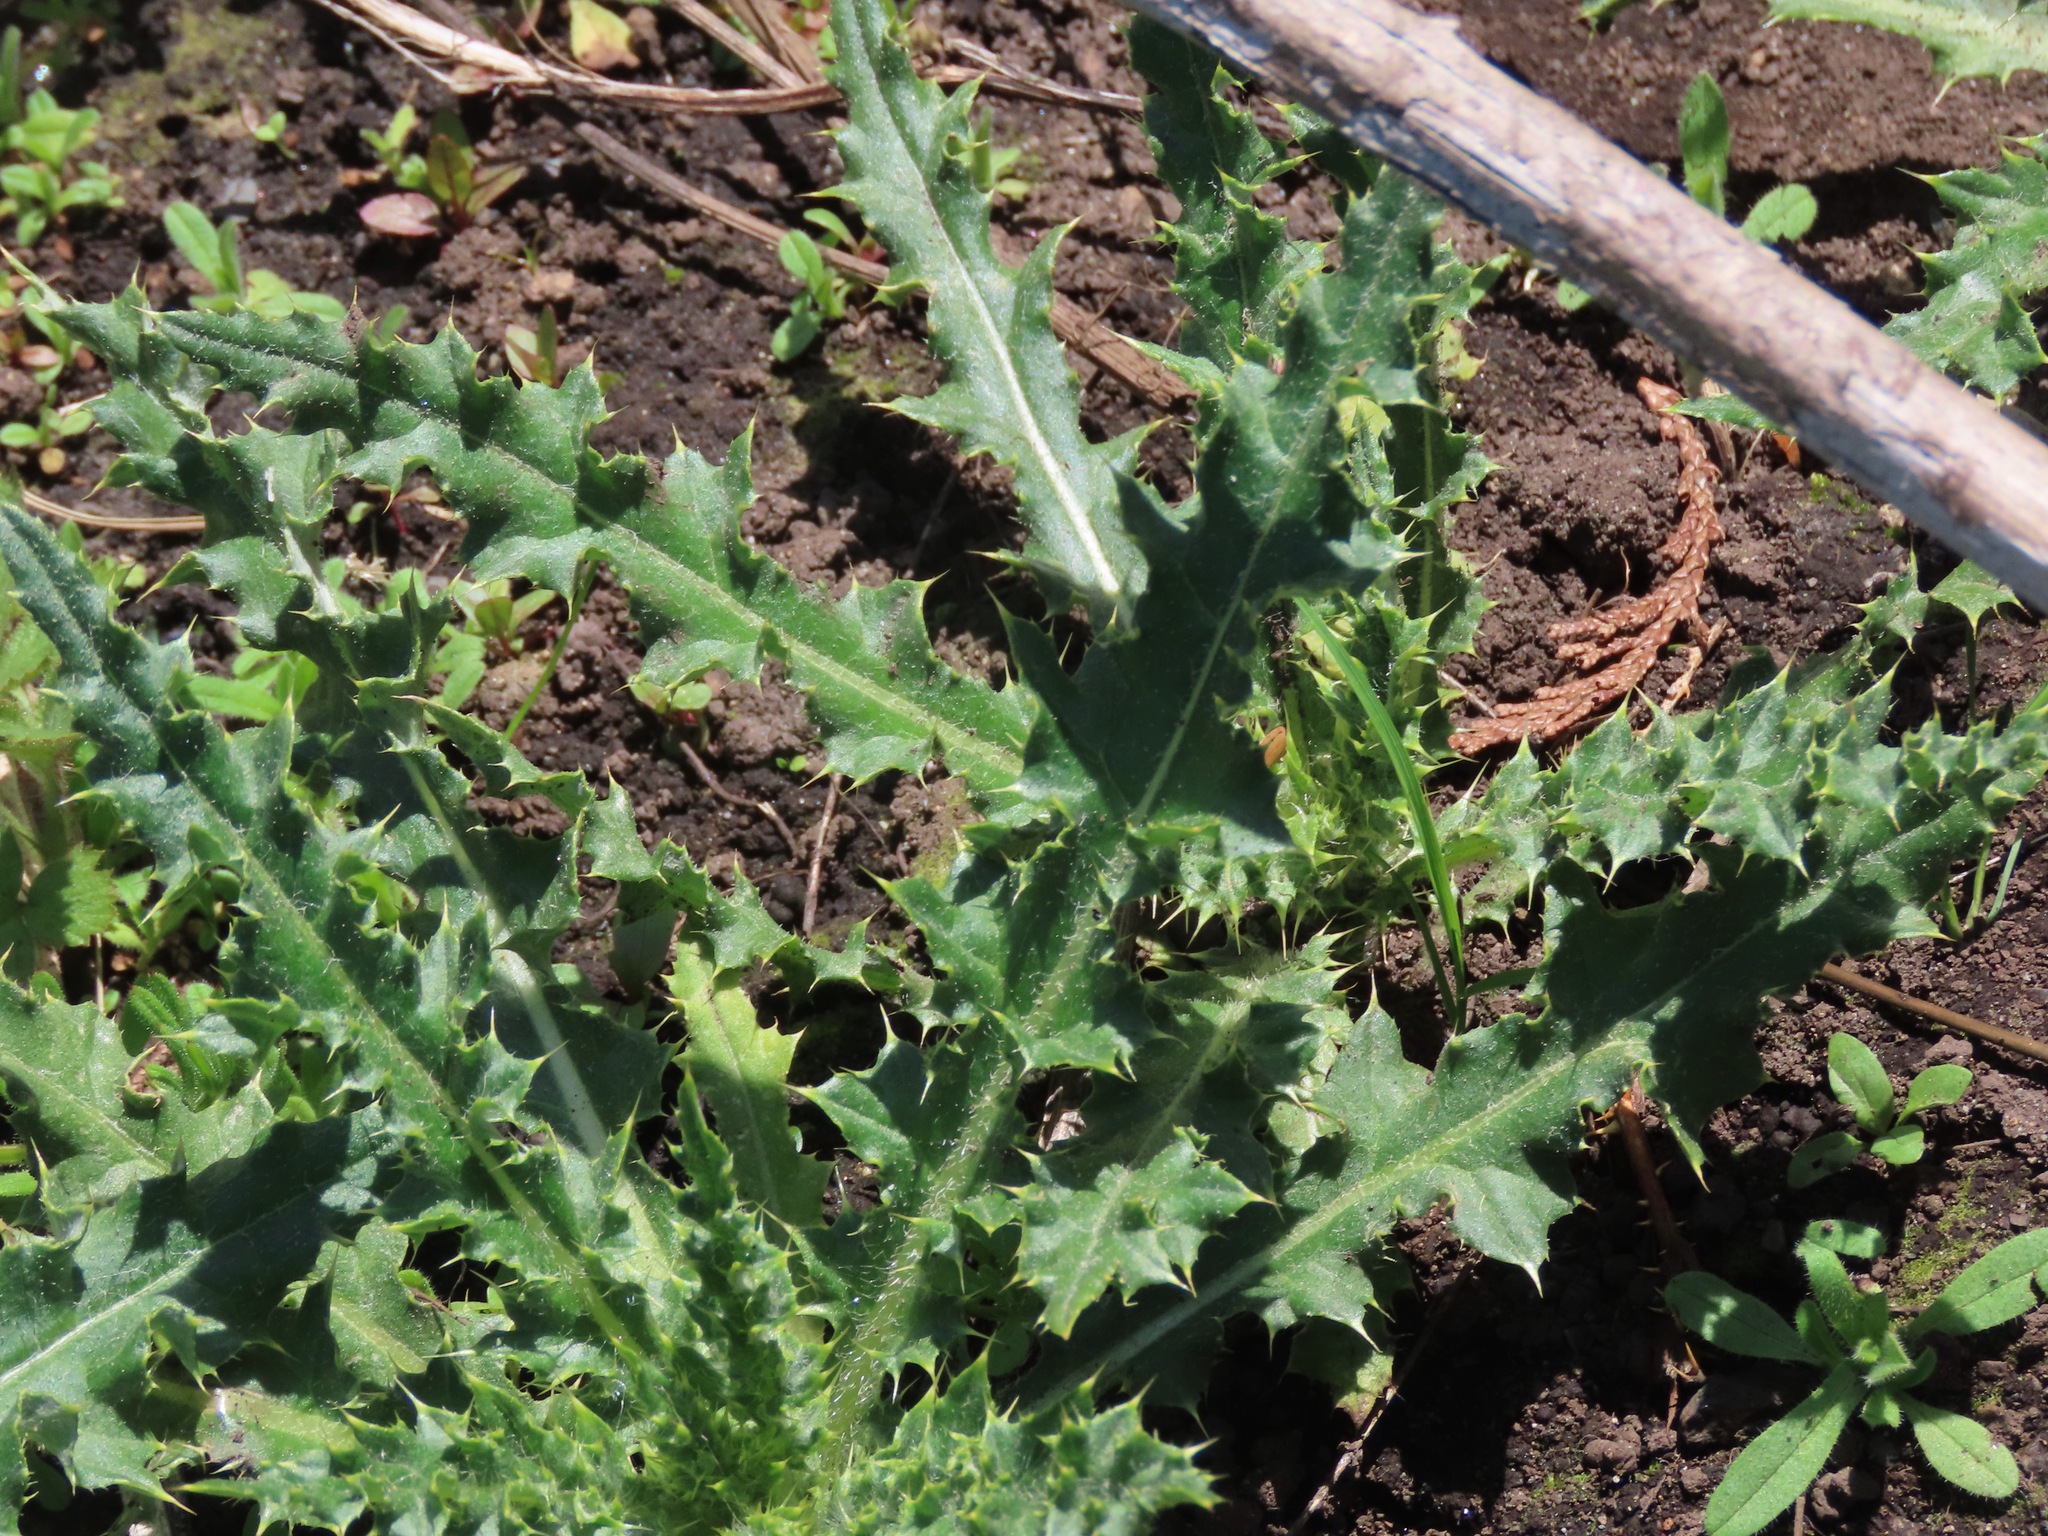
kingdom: Plantae
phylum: Tracheophyta
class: Magnoliopsida
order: Asterales
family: Asteraceae
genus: Cirsium
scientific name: Cirsium arvense
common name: Creeping thistle
